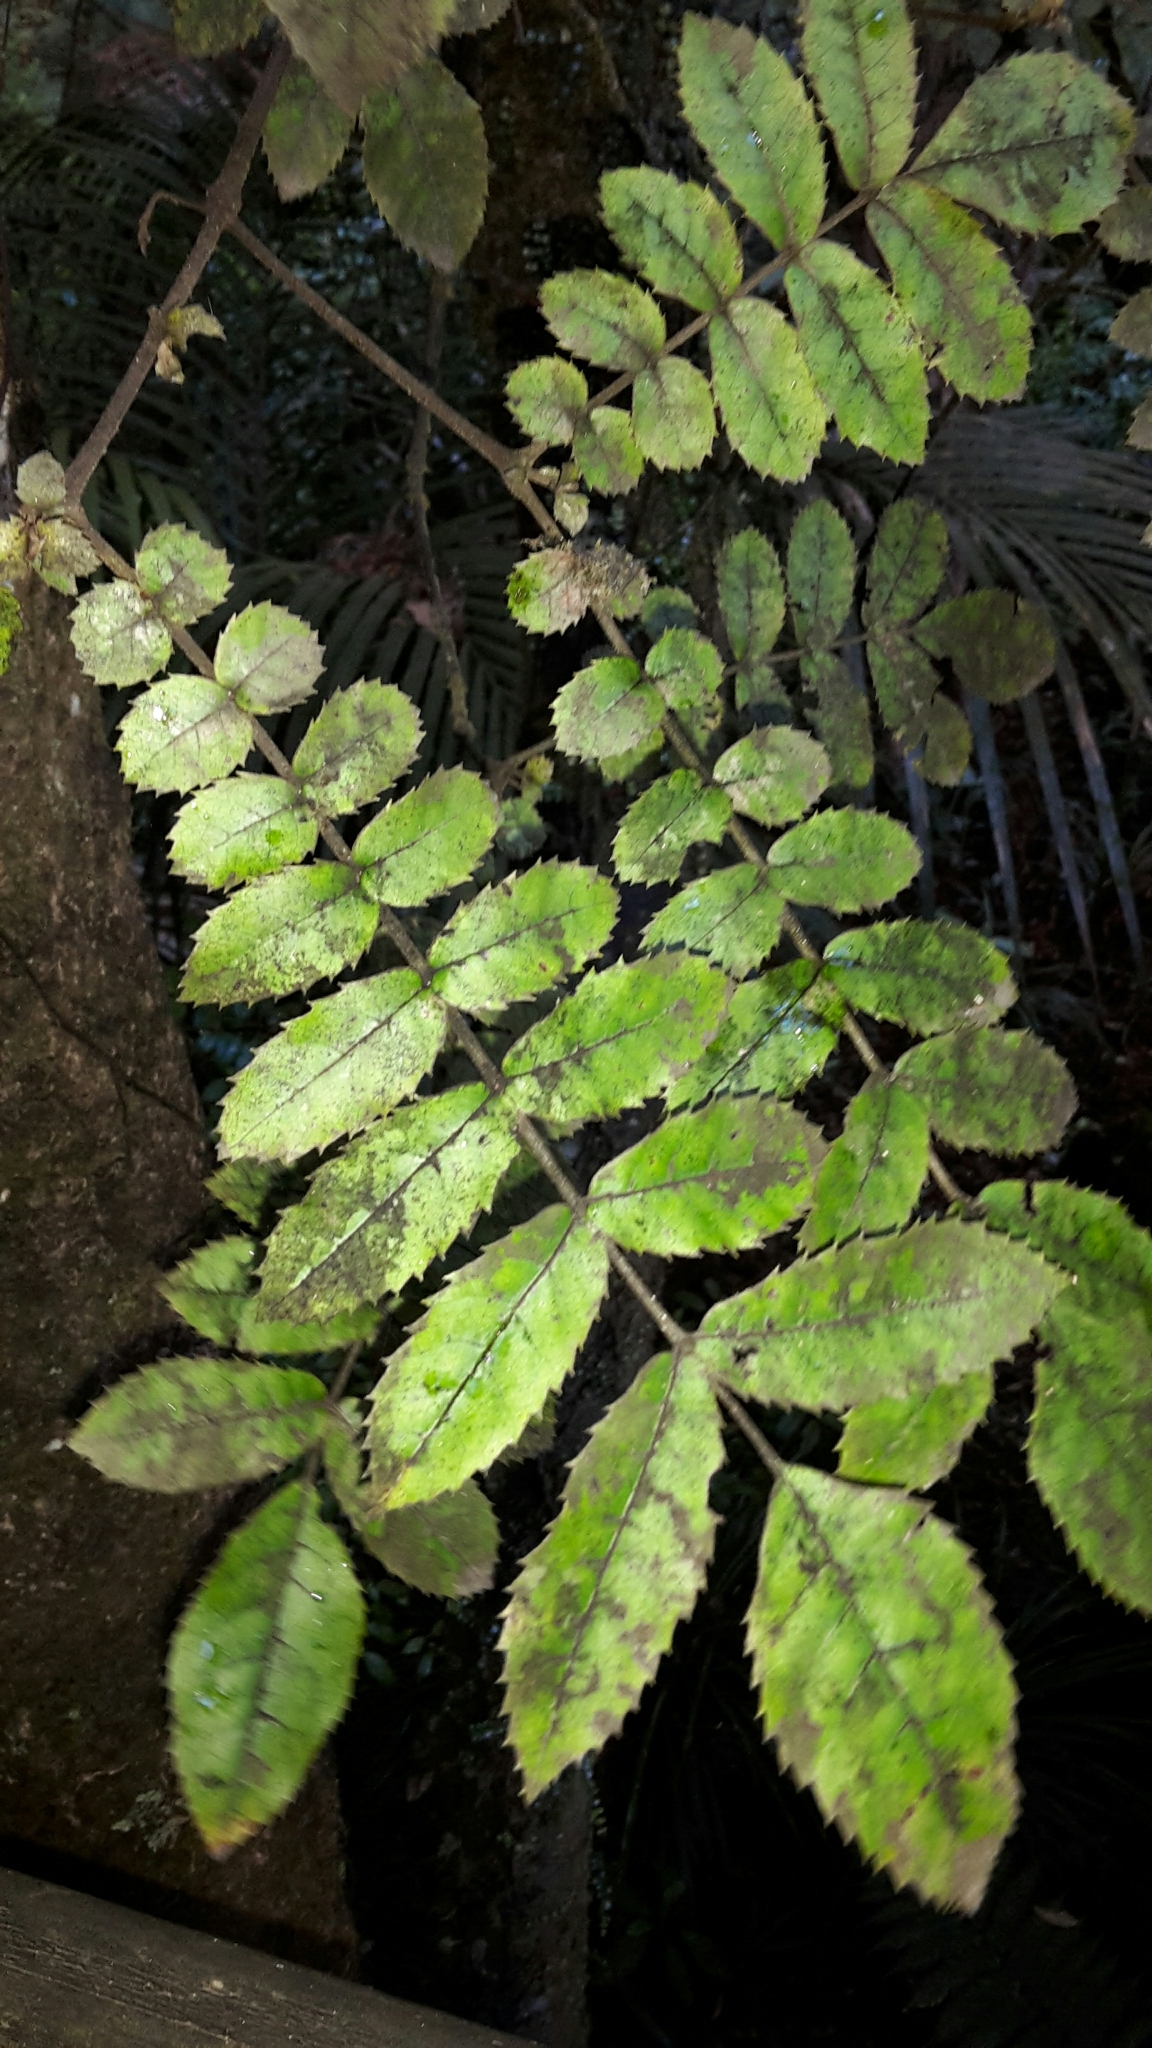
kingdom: Plantae
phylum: Tracheophyta
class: Magnoliopsida
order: Oxalidales
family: Cunoniaceae
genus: Ackama
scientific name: Ackama rosifolia
